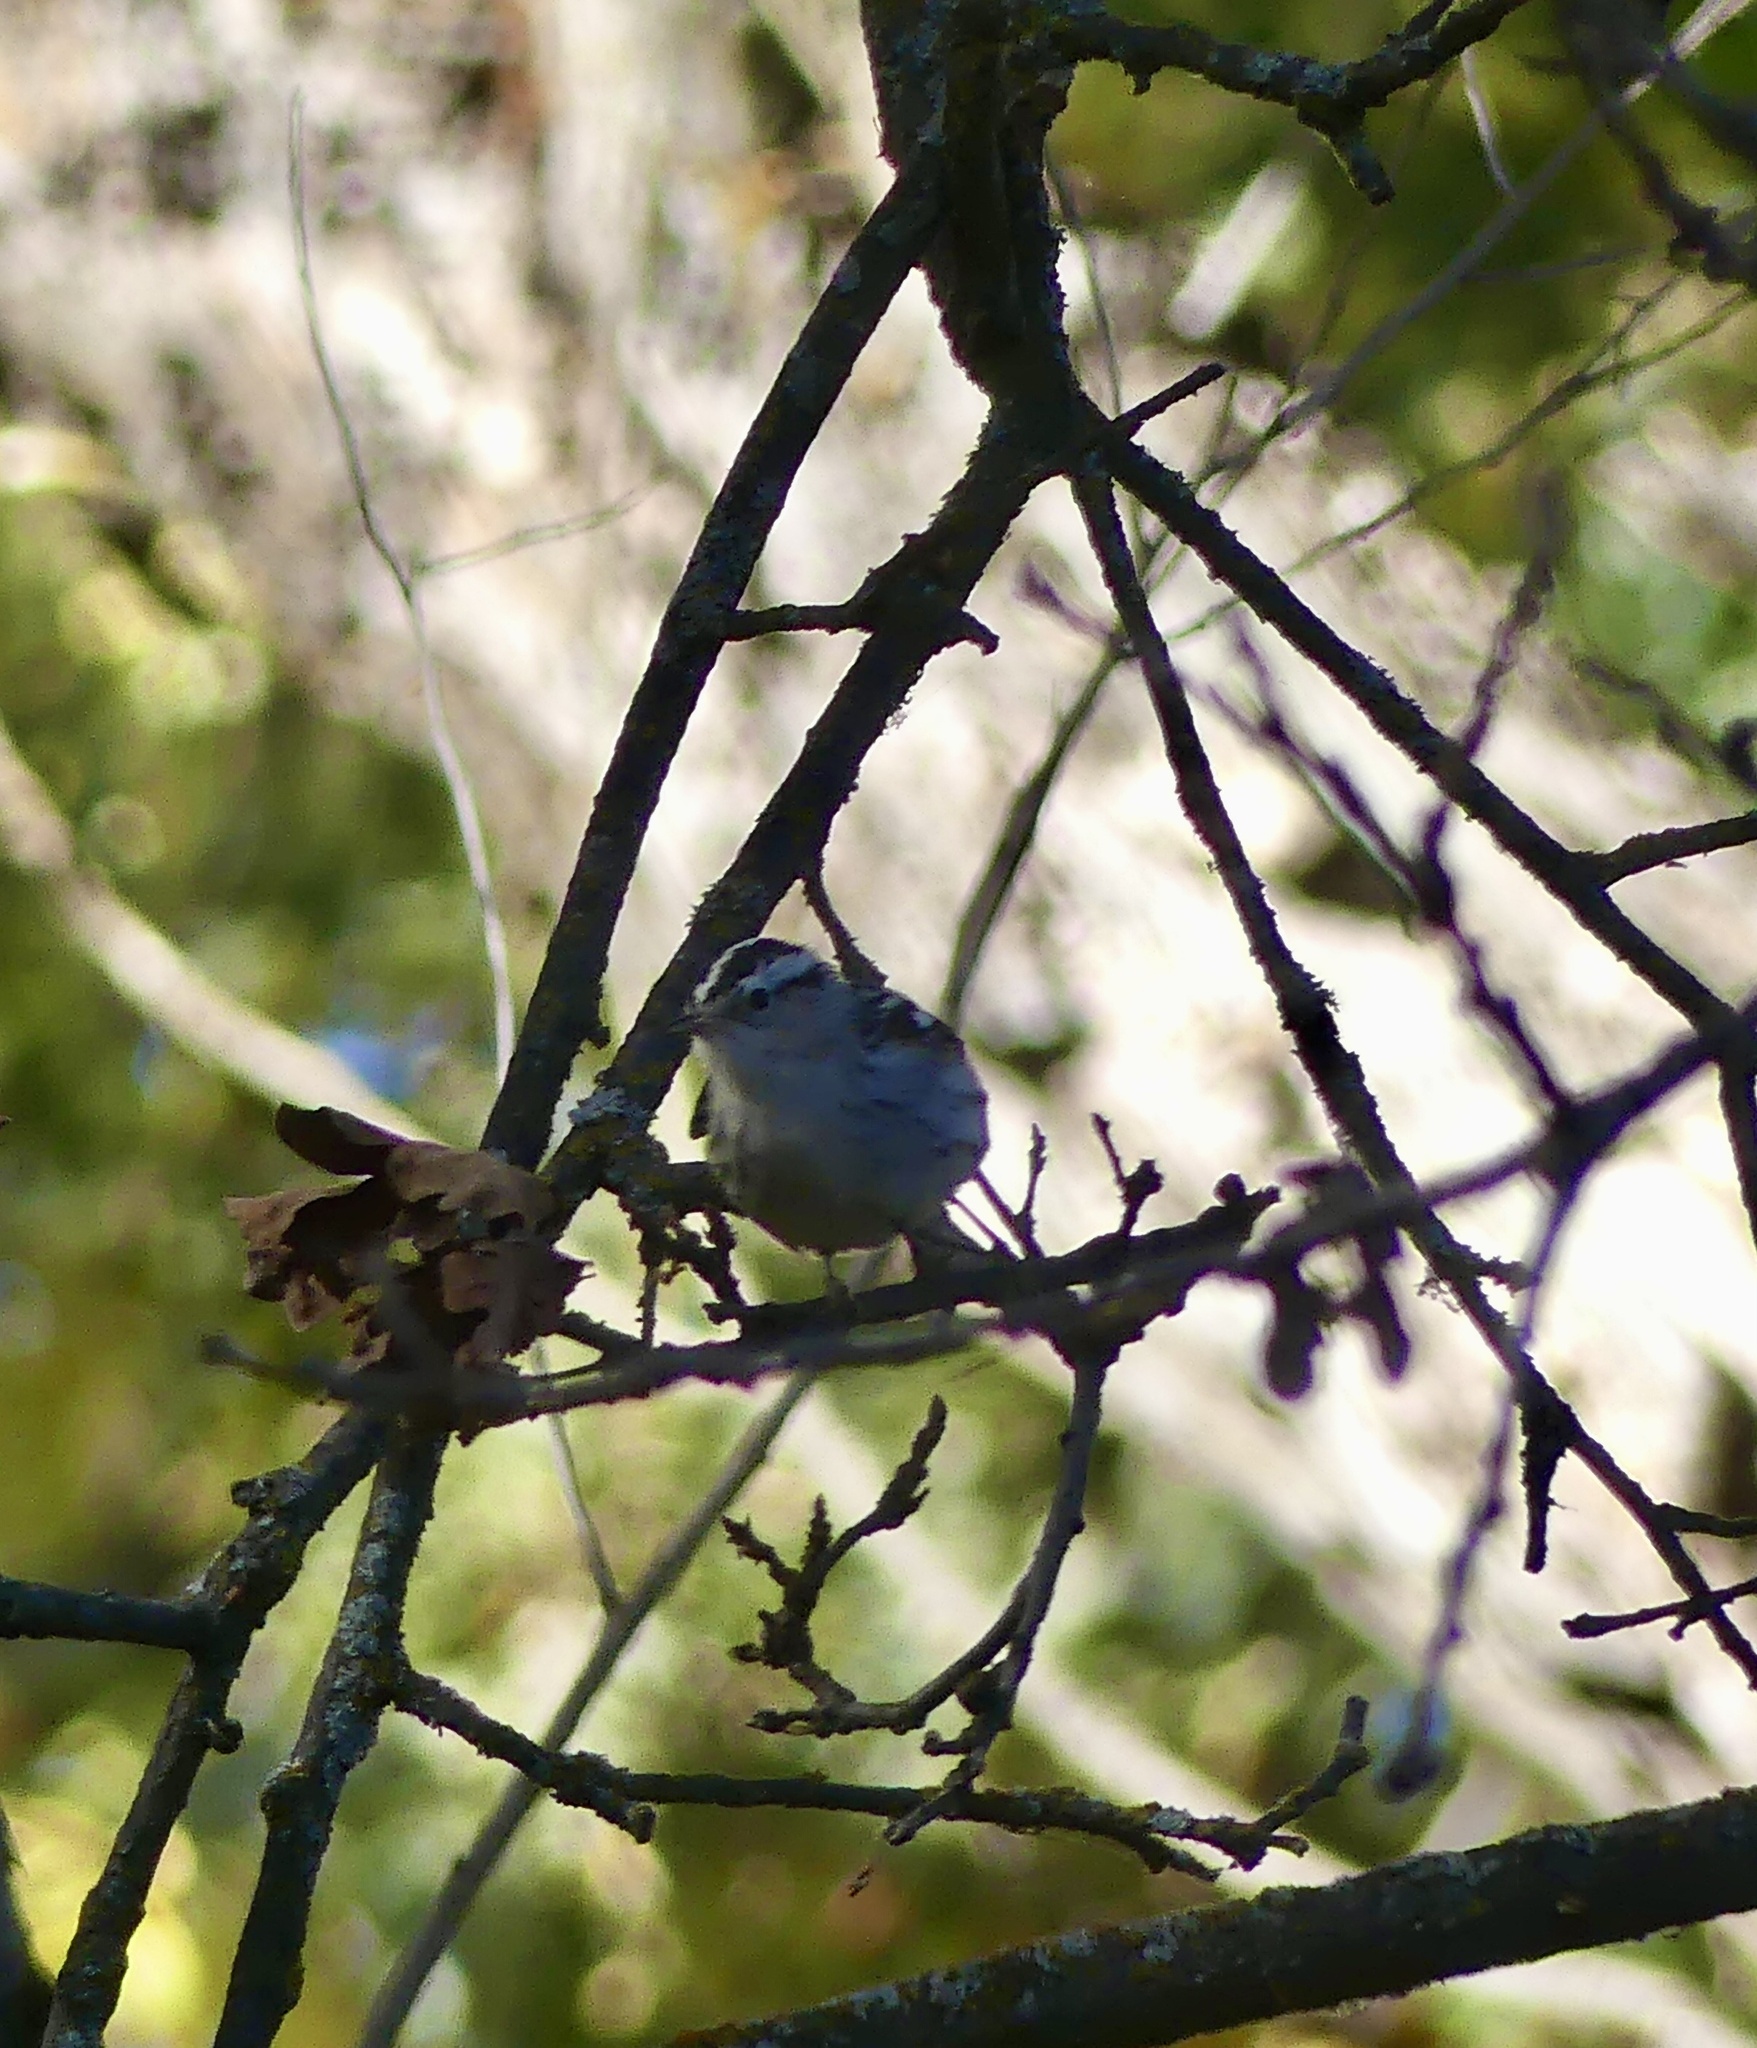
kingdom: Animalia
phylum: Chordata
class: Aves
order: Passeriformes
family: Parulidae
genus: Mniotilta
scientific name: Mniotilta varia
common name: Black-and-white warbler
